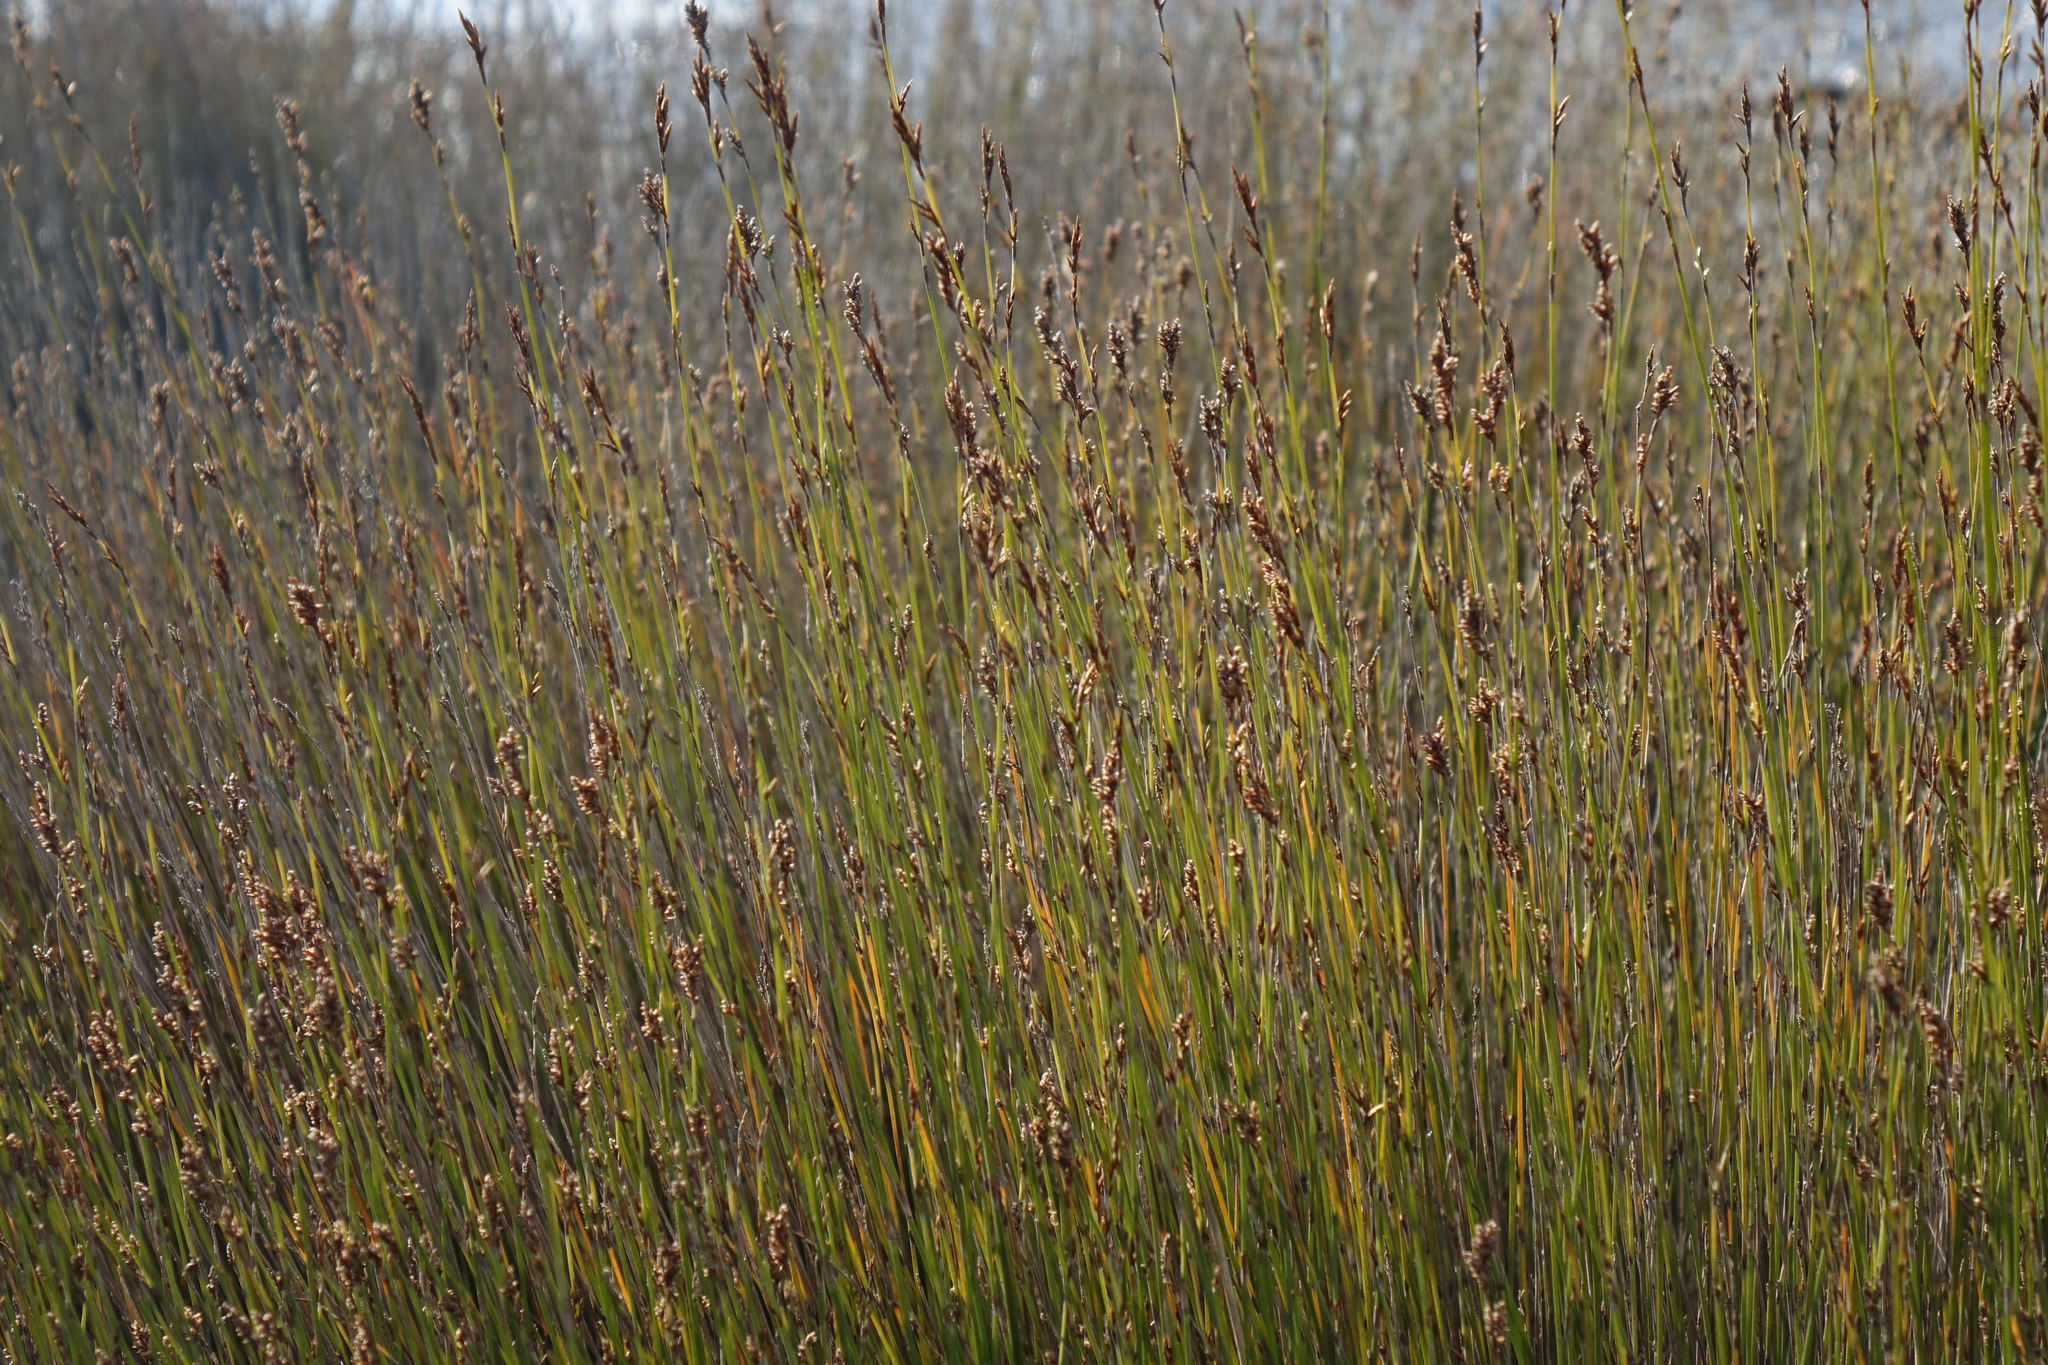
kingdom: Plantae
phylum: Tracheophyta
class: Liliopsida
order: Poales
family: Restionaceae
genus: Apodasmia
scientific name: Apodasmia similis
